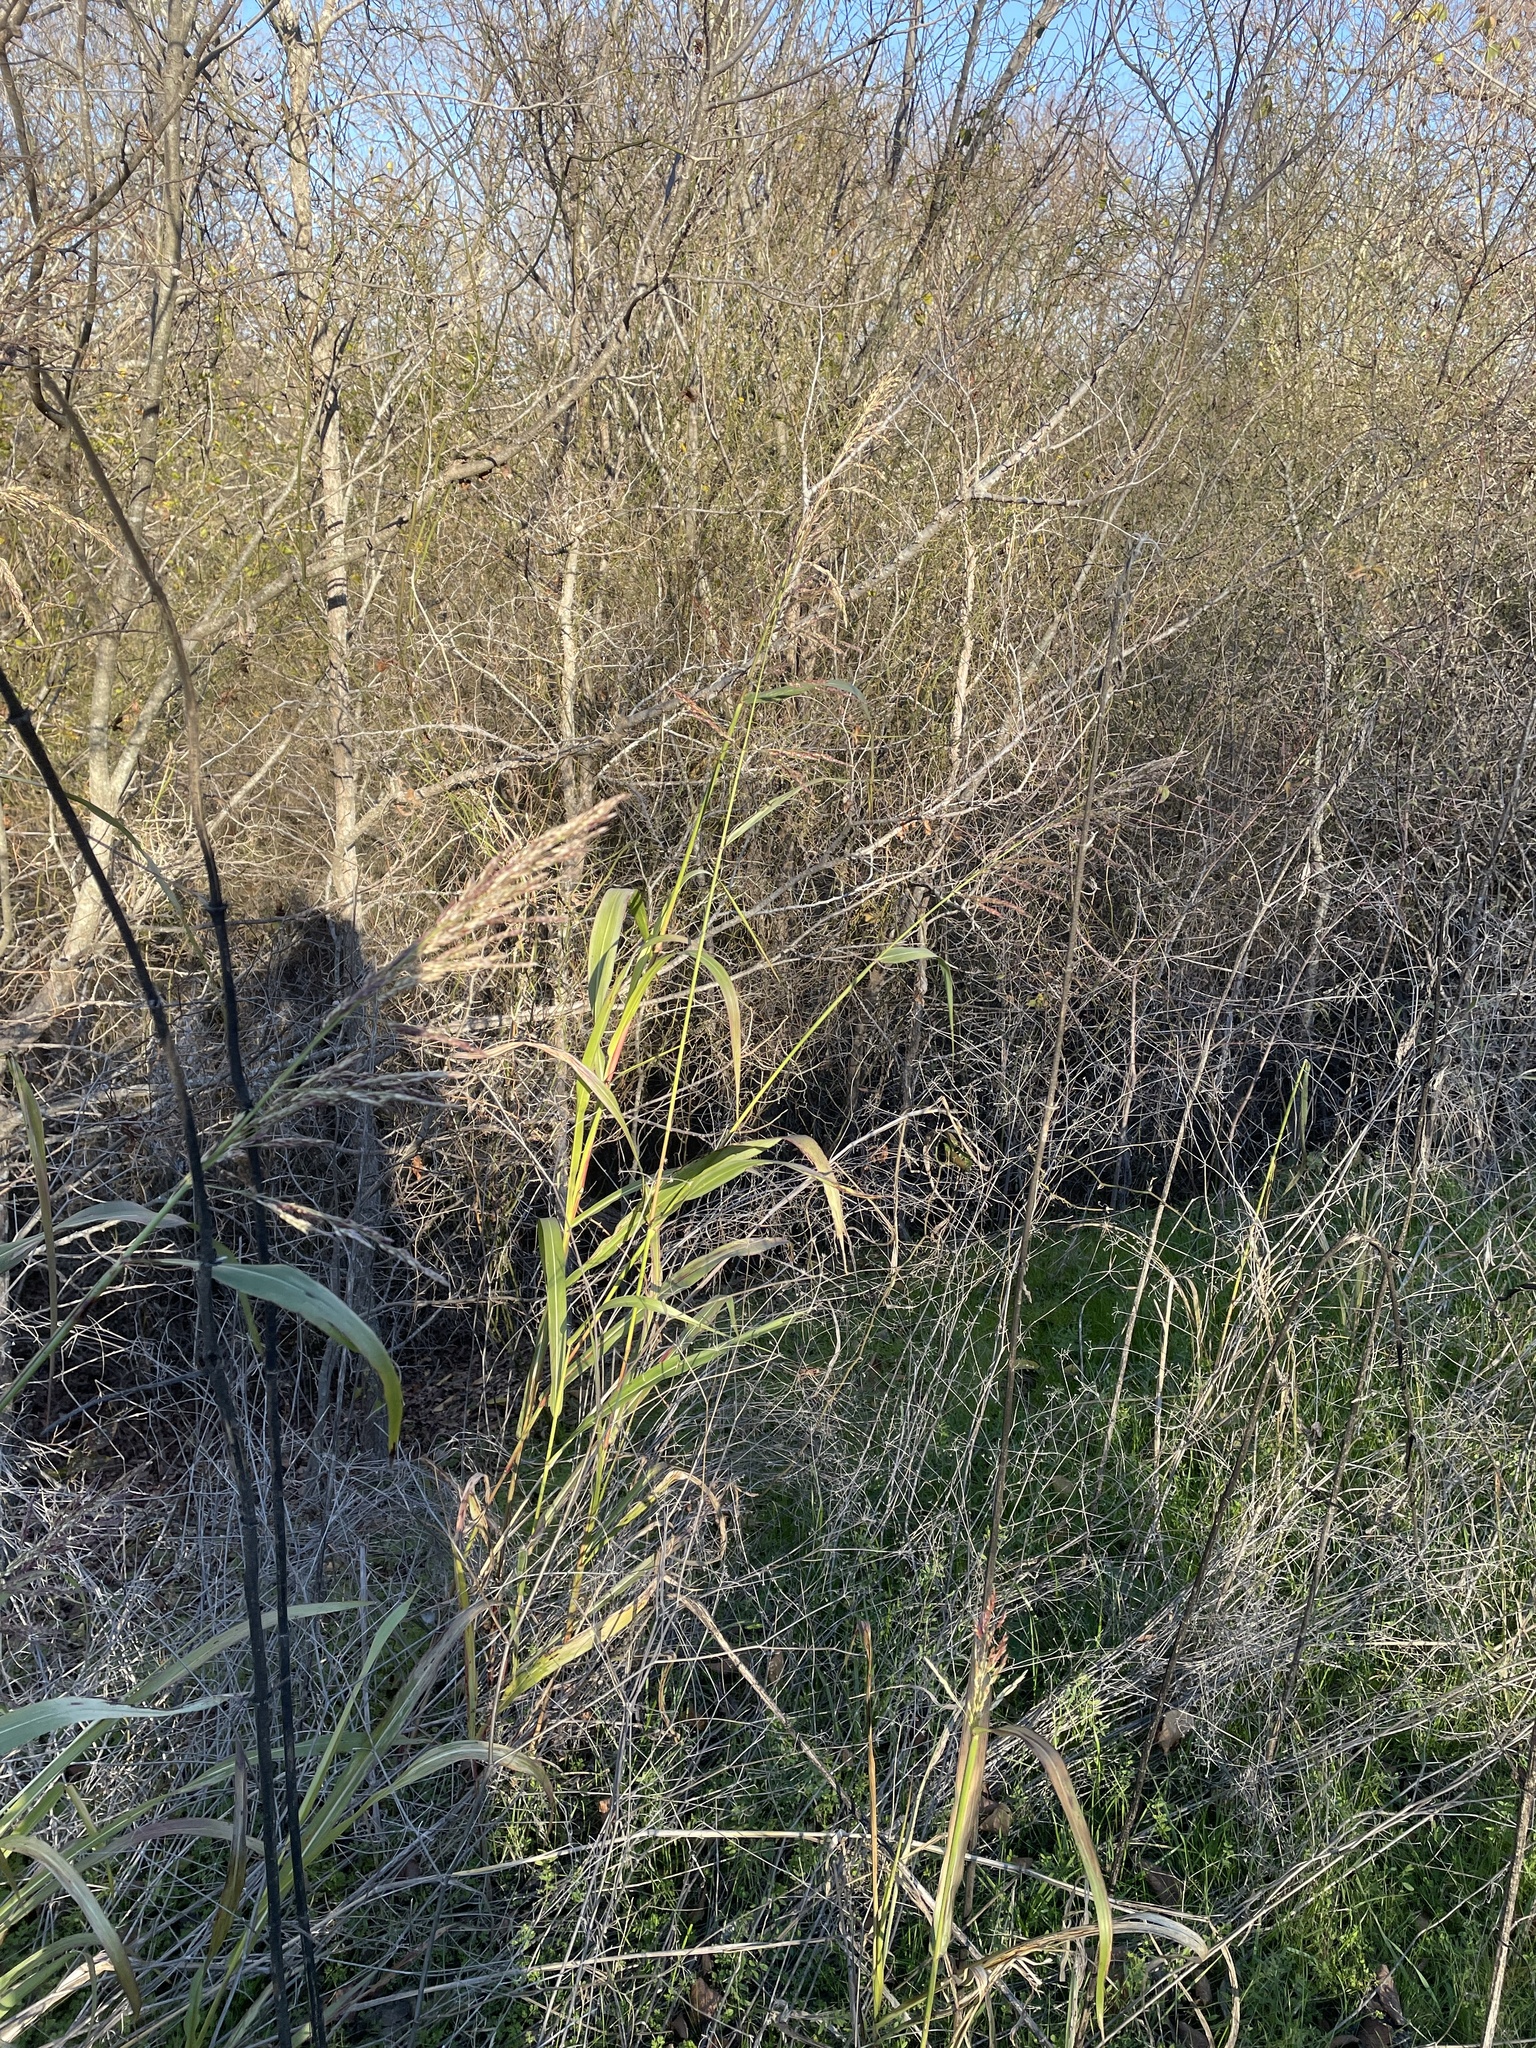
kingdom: Plantae
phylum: Tracheophyta
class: Liliopsida
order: Poales
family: Poaceae
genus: Sorghum
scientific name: Sorghum halepense
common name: Johnson-grass
